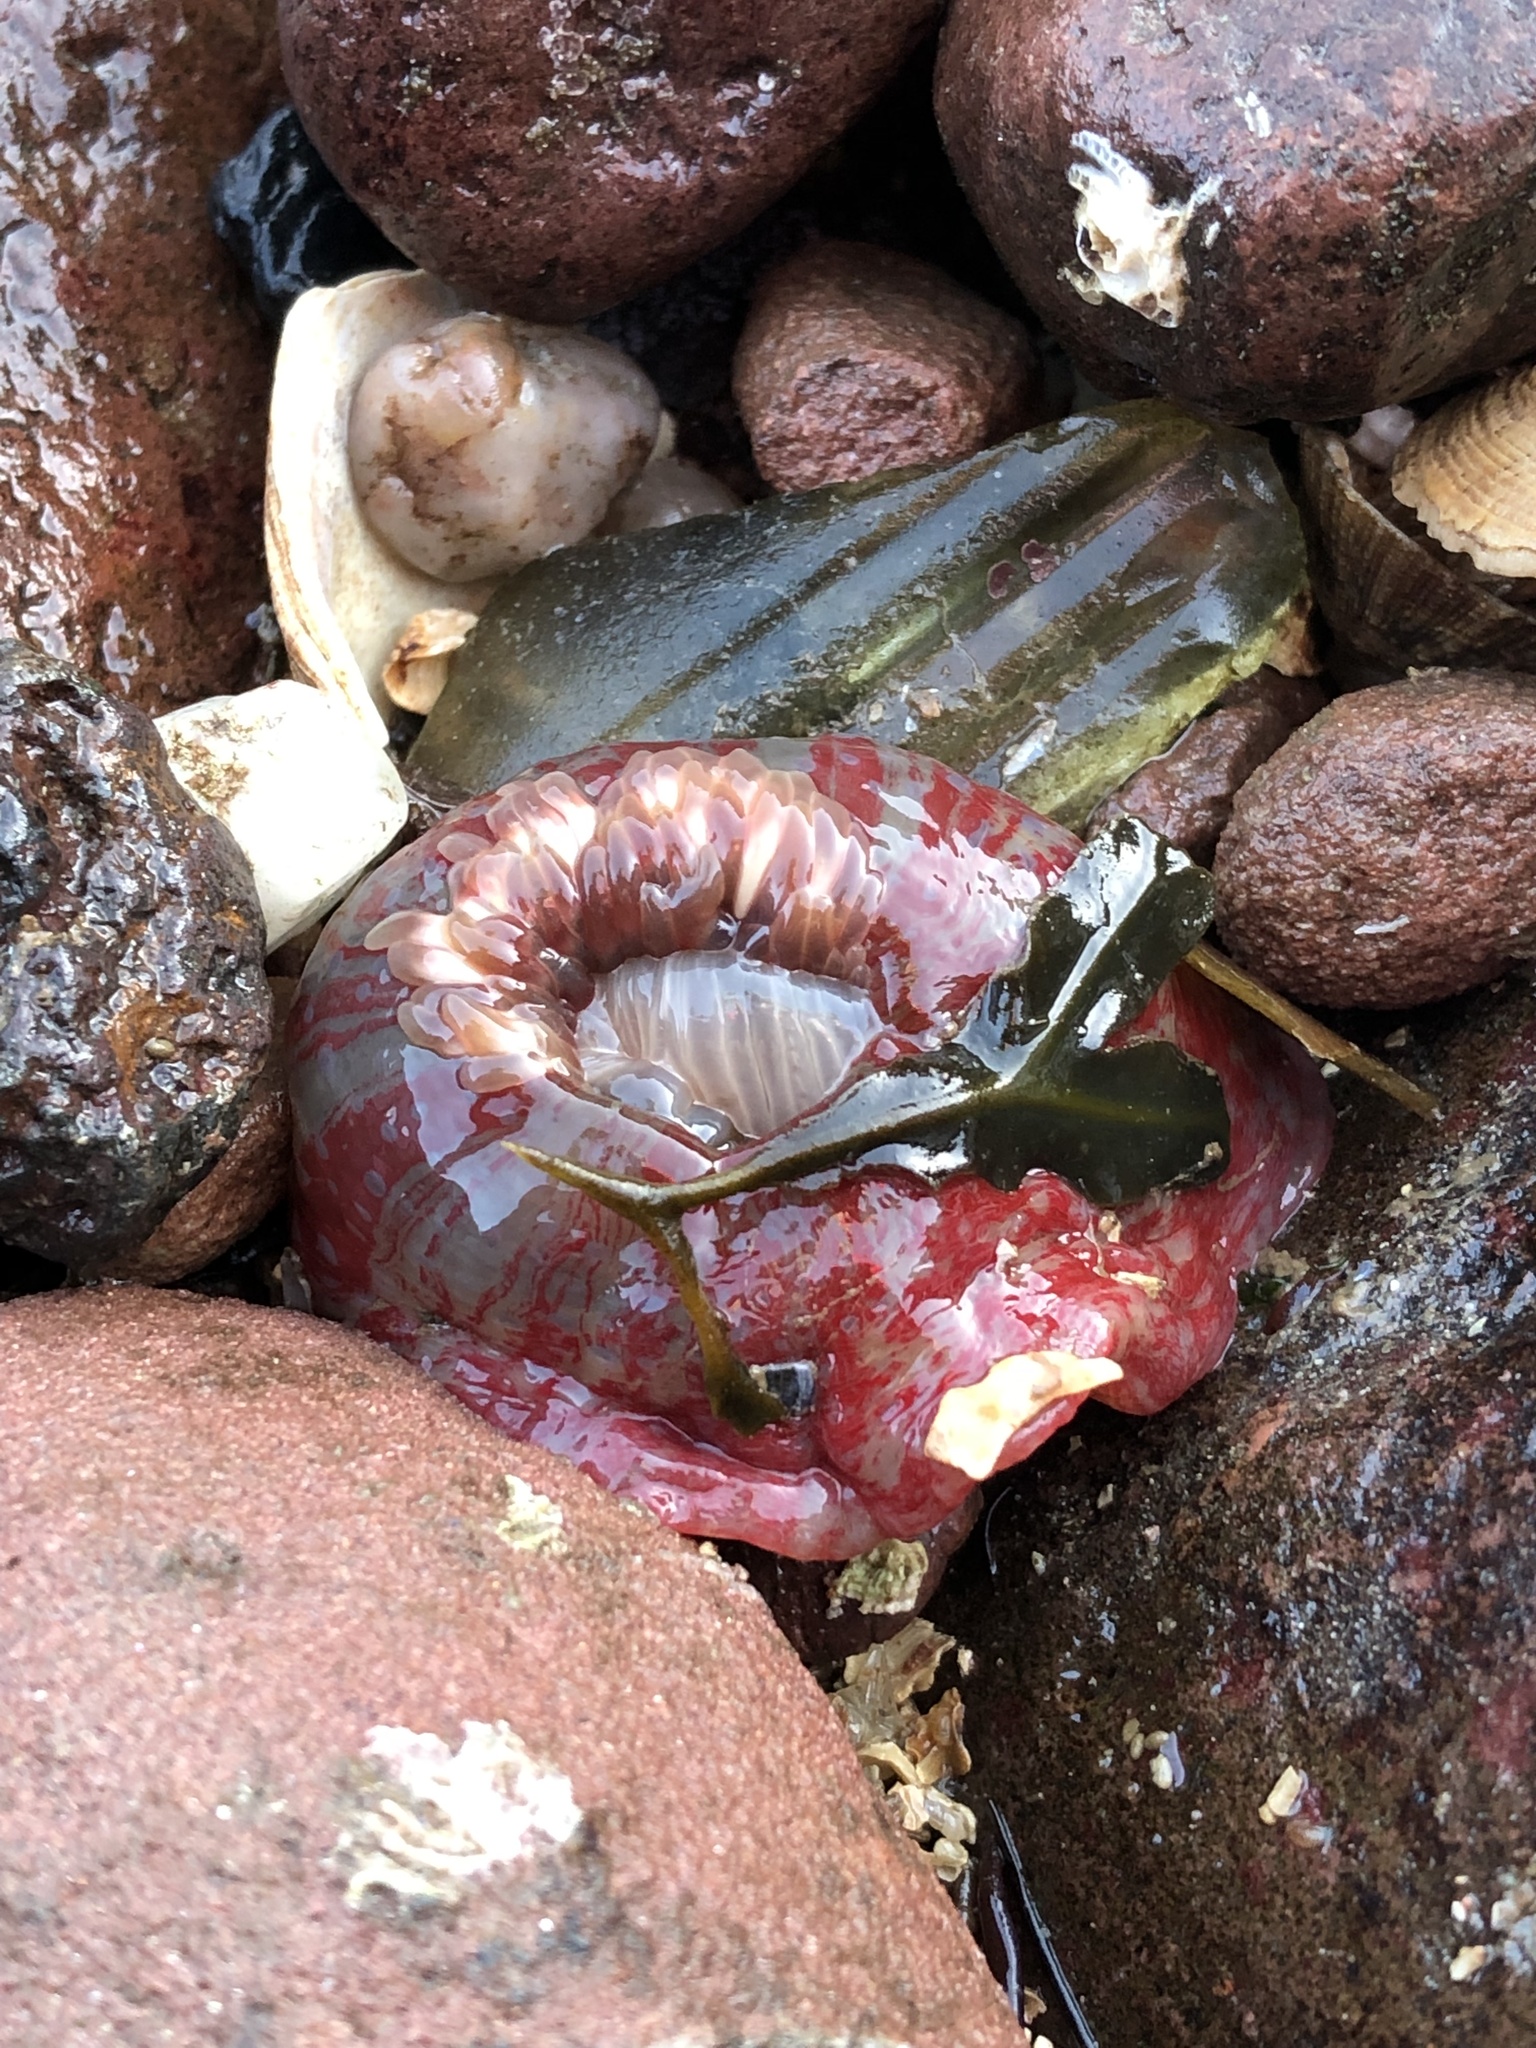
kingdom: Animalia
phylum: Cnidaria
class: Anthozoa
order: Actiniaria
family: Actiniidae
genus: Urticina
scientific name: Urticina felina
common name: Dahlia anemone
